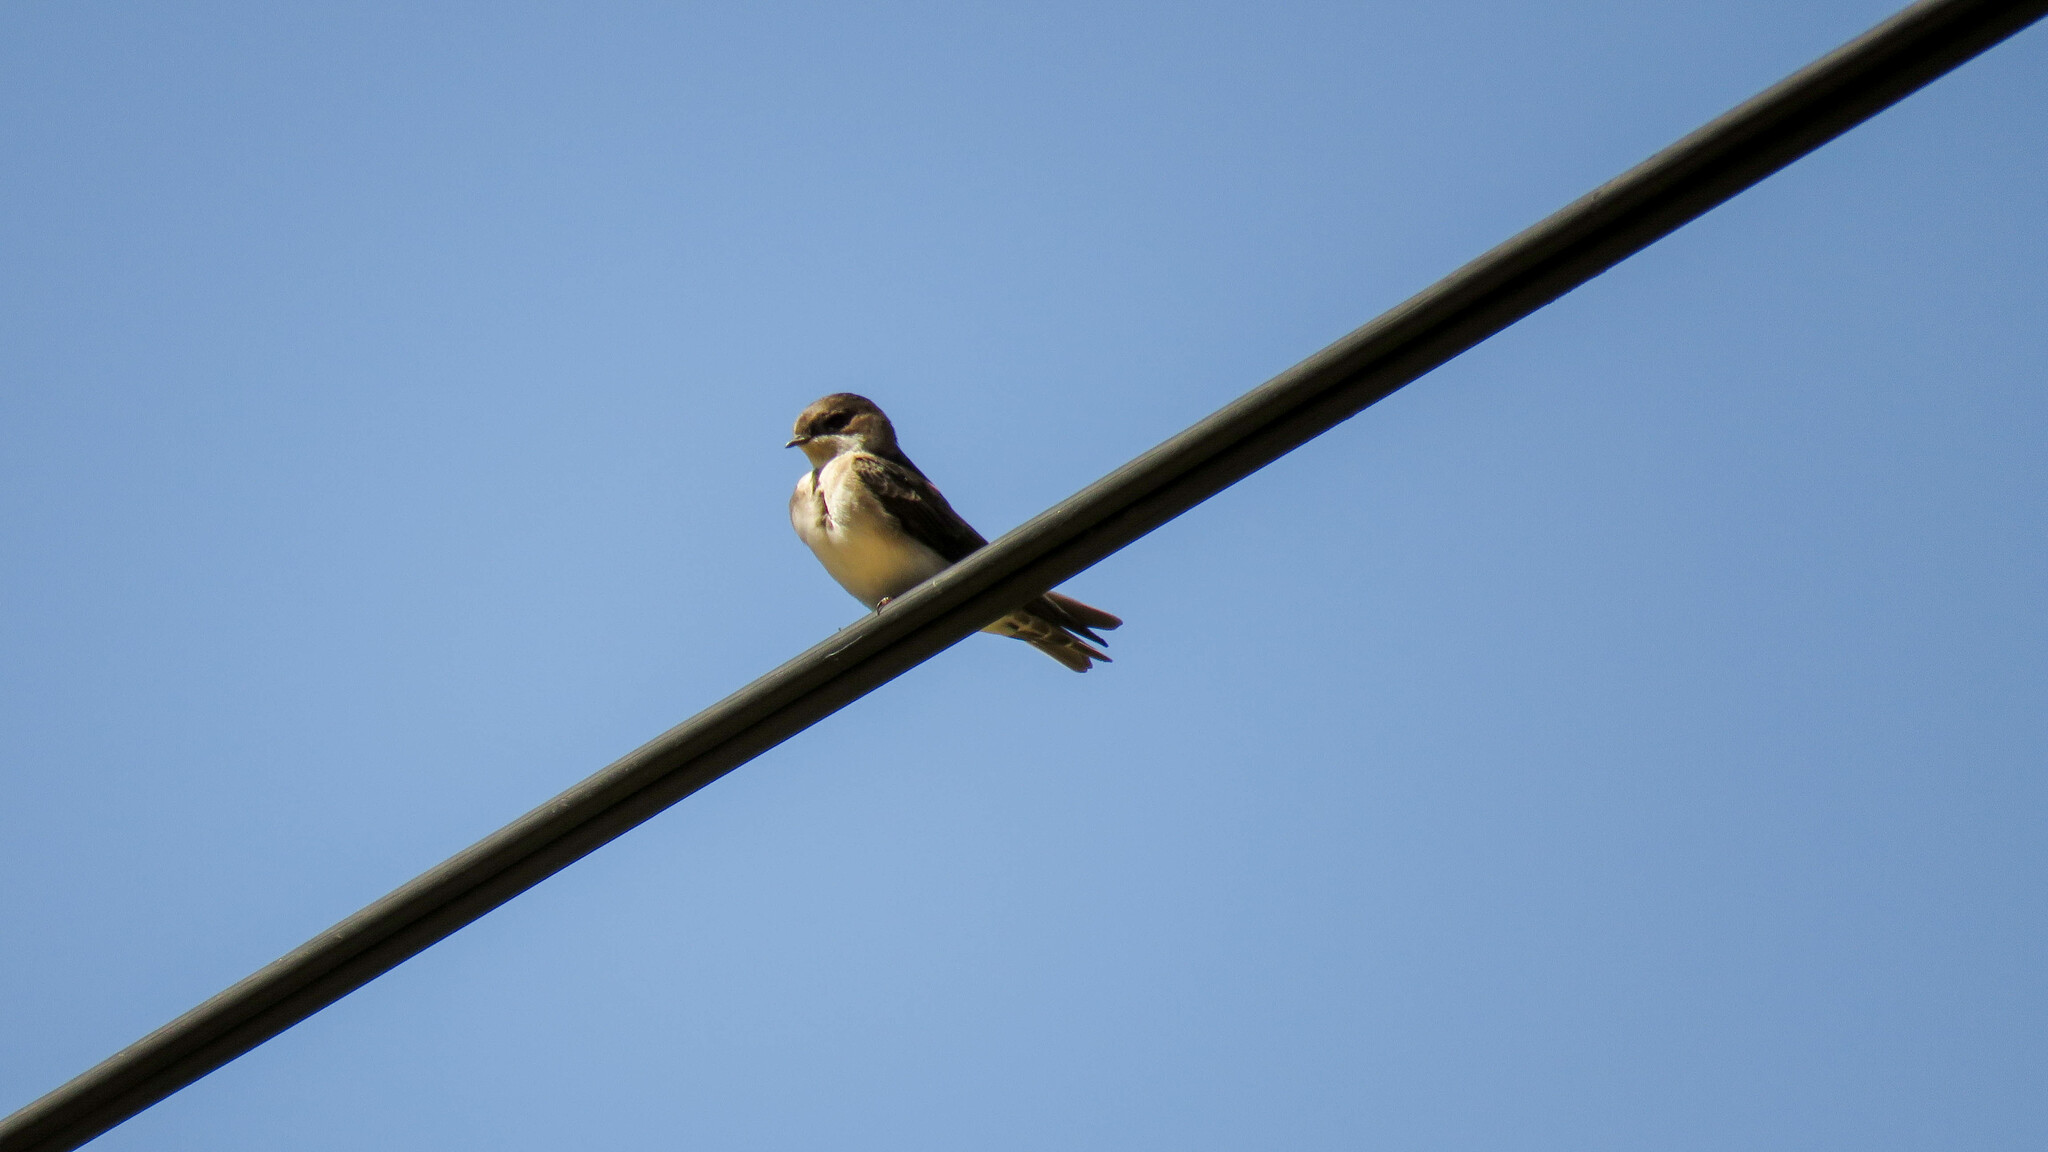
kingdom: Animalia
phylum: Chordata
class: Aves
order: Passeriformes
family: Hirundinidae
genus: Notiochelidon
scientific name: Notiochelidon cyanoleuca
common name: Blue-and-white swallow
